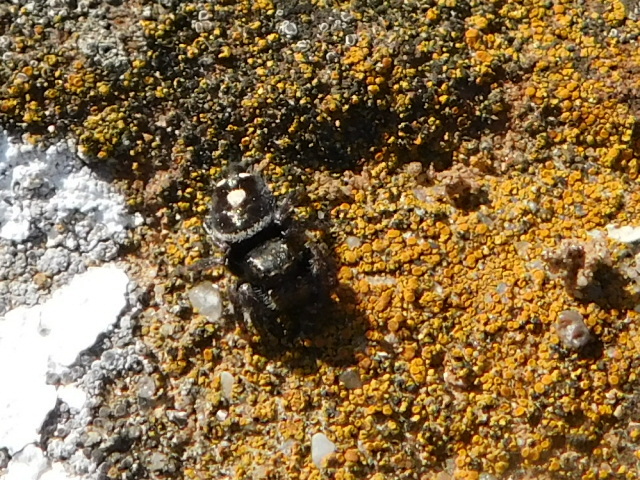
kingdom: Animalia
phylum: Arthropoda
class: Arachnida
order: Araneae
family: Salticidae
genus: Phidippus
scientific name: Phidippus audax
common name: Bold jumper
